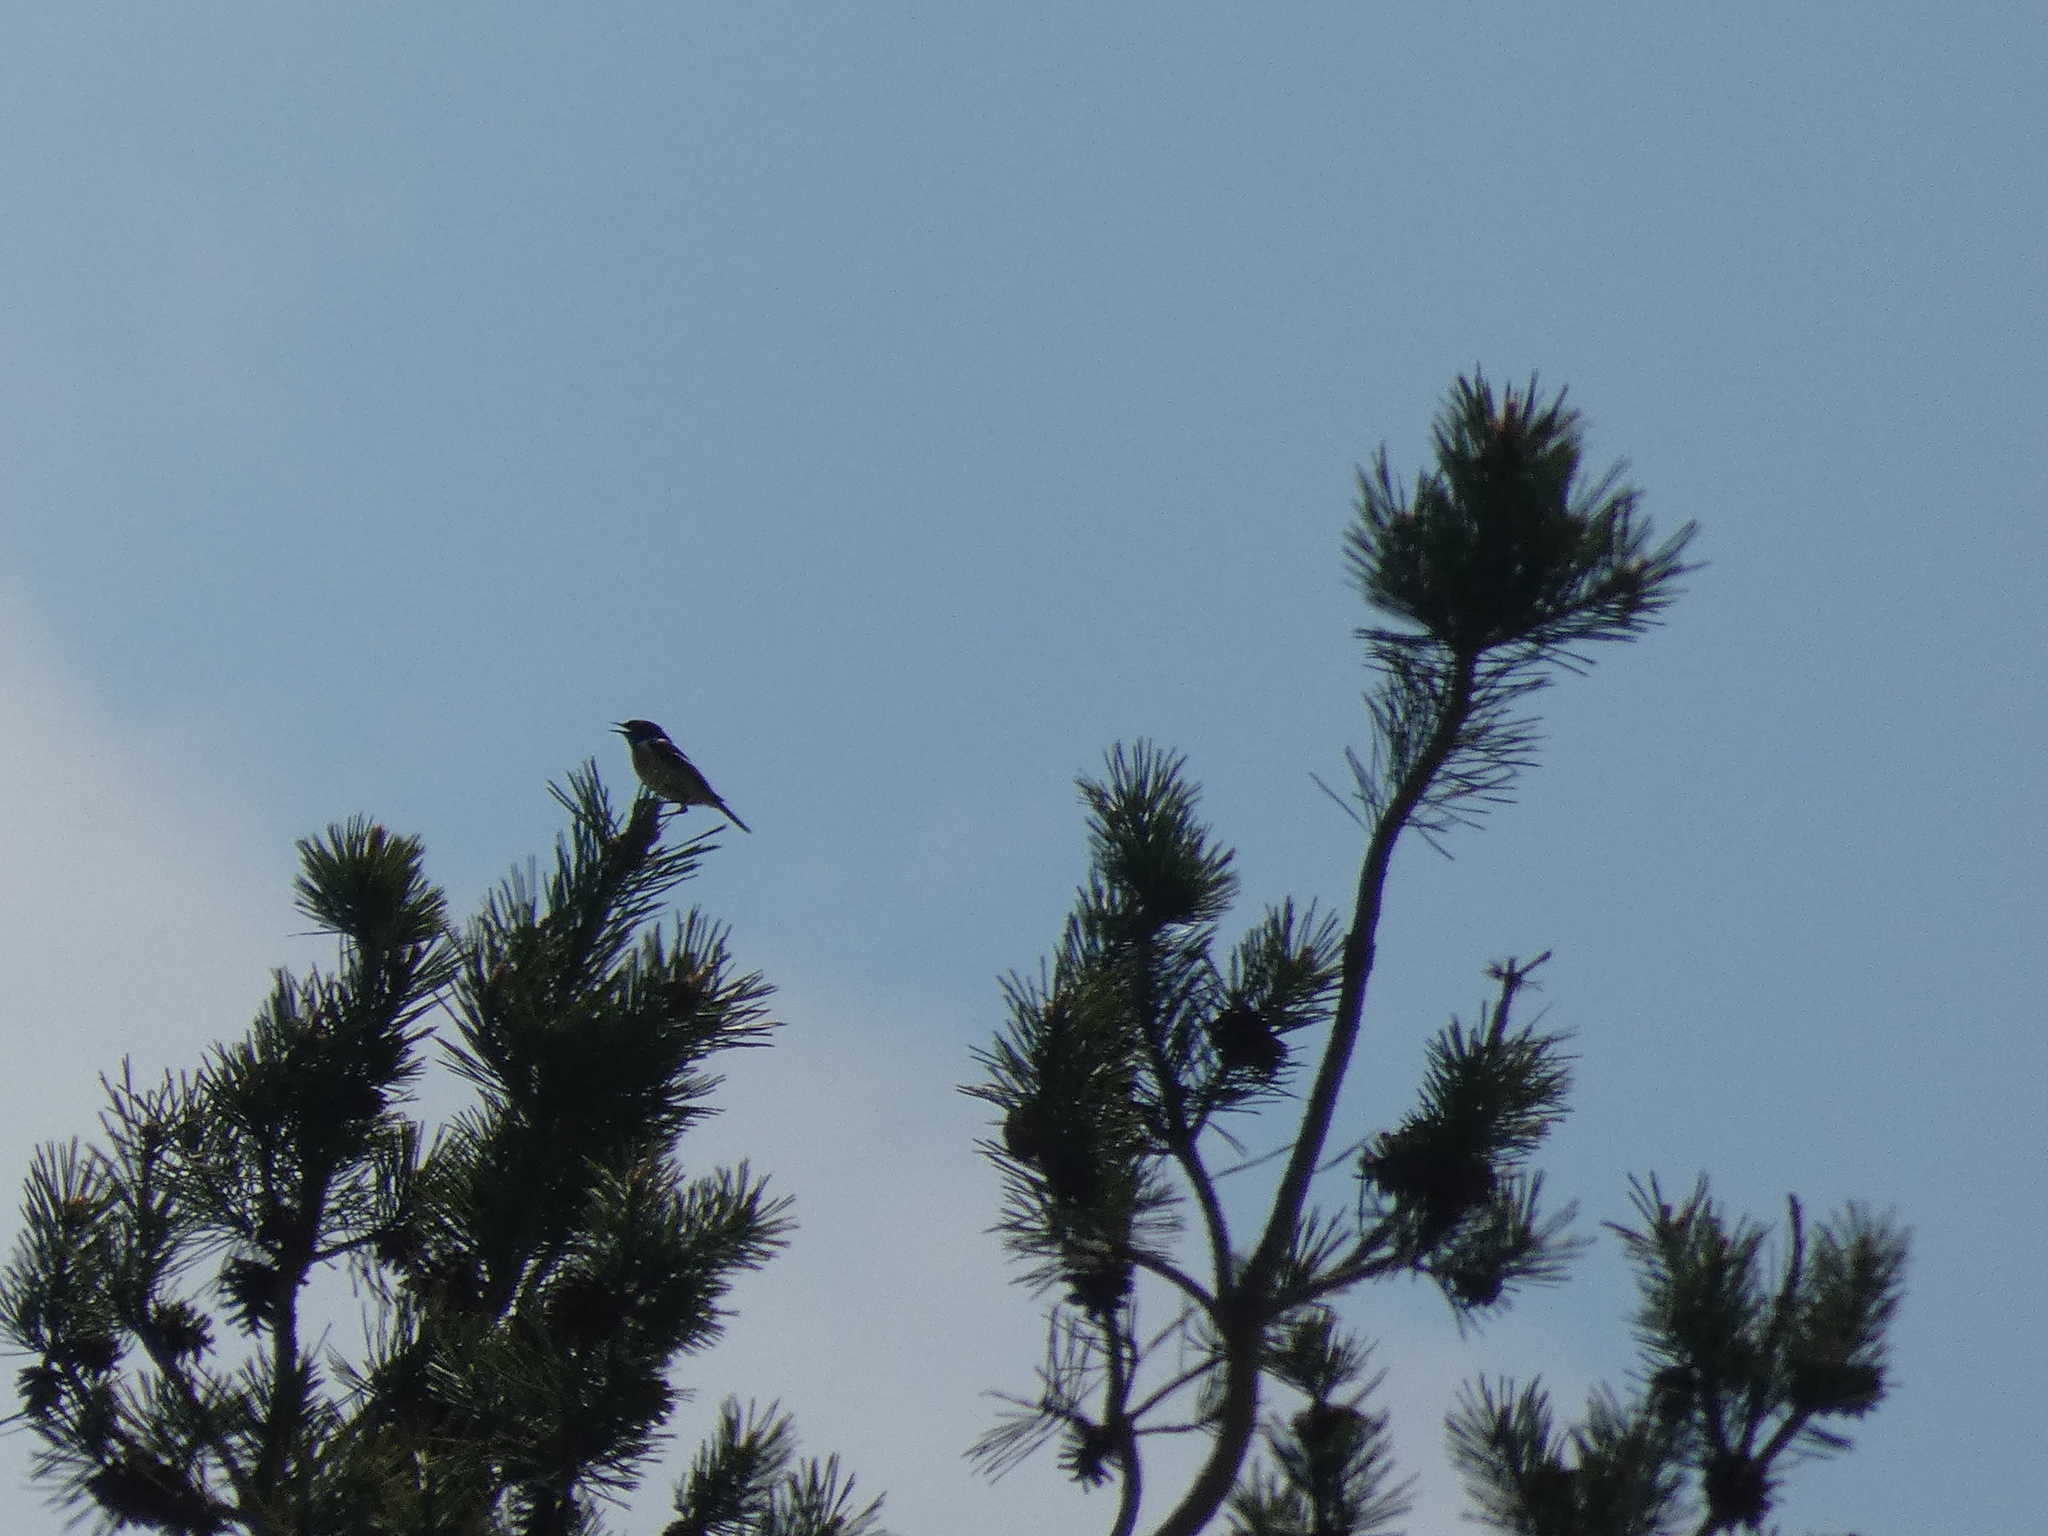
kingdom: Animalia
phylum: Chordata
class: Aves
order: Passeriformes
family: Muscicapidae
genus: Saxicola
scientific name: Saxicola rubicola
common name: European stonechat
